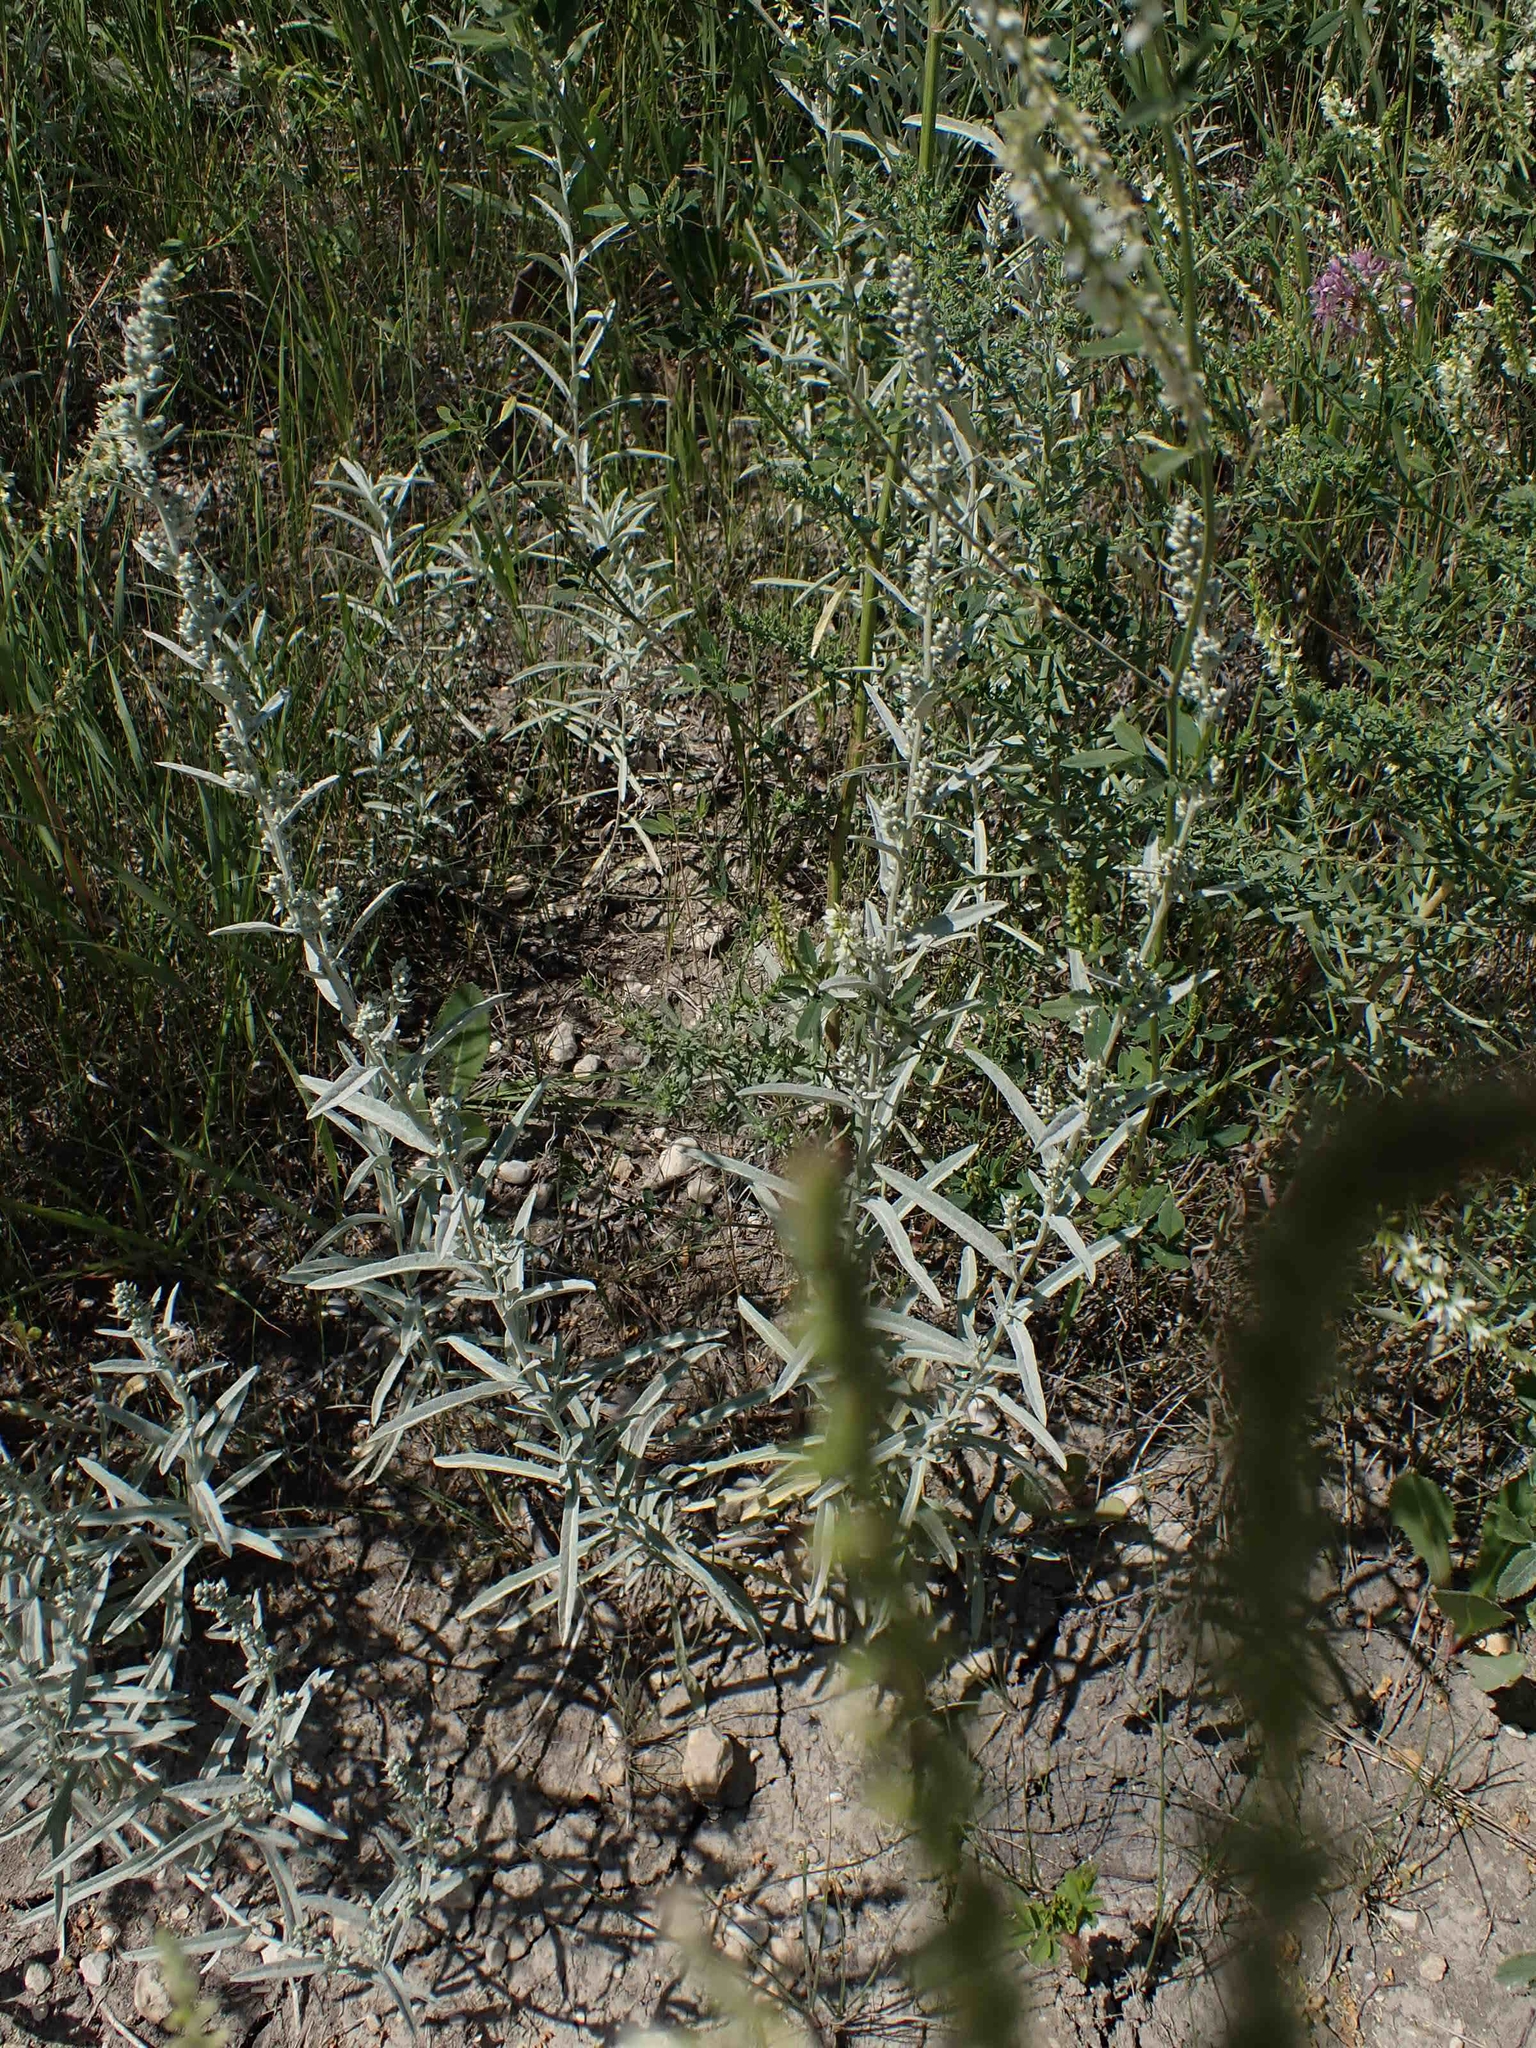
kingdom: Plantae
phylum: Tracheophyta
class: Magnoliopsida
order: Asterales
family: Asteraceae
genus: Artemisia
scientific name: Artemisia ludoviciana
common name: Western mugwort
